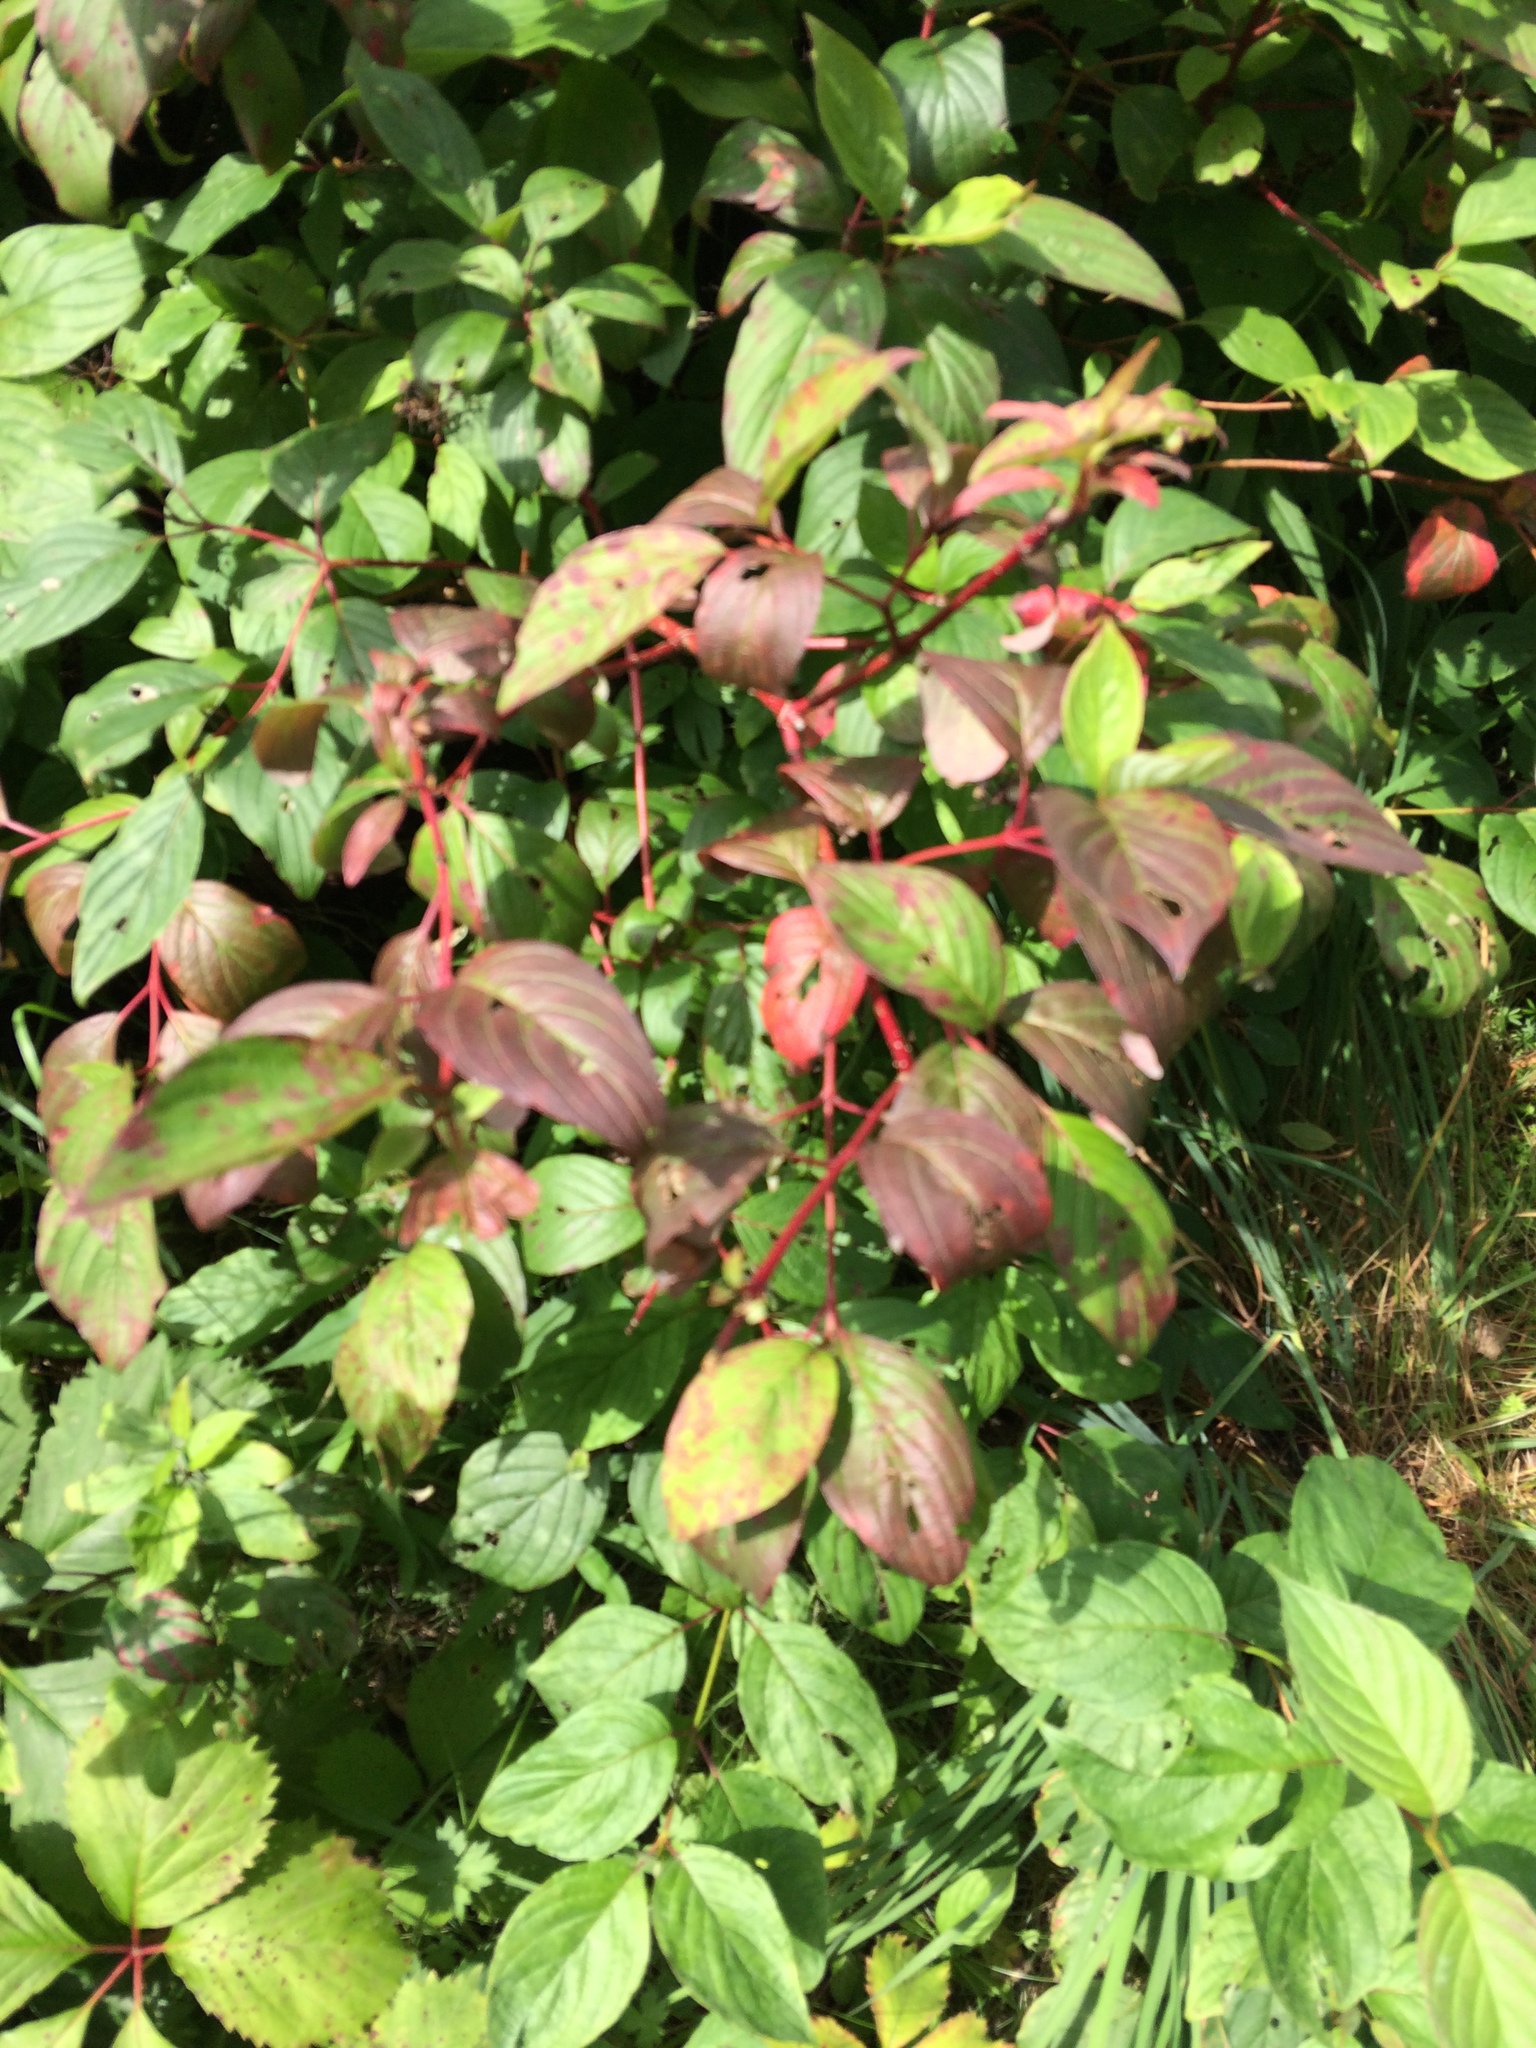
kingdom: Plantae
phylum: Tracheophyta
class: Magnoliopsida
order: Cornales
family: Cornaceae
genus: Cornus
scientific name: Cornus sericea
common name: Red-osier dogwood
